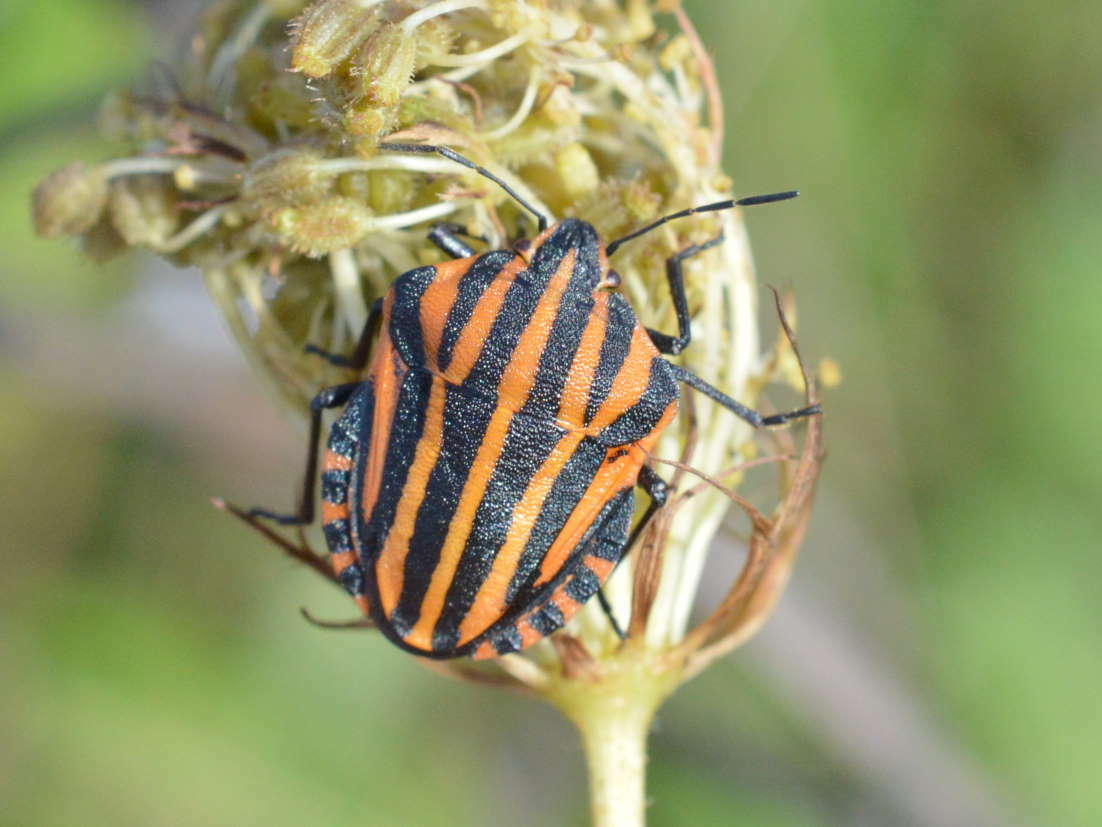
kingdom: Animalia
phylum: Arthropoda
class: Insecta
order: Hemiptera
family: Pentatomidae
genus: Graphosoma
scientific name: Graphosoma italicum
